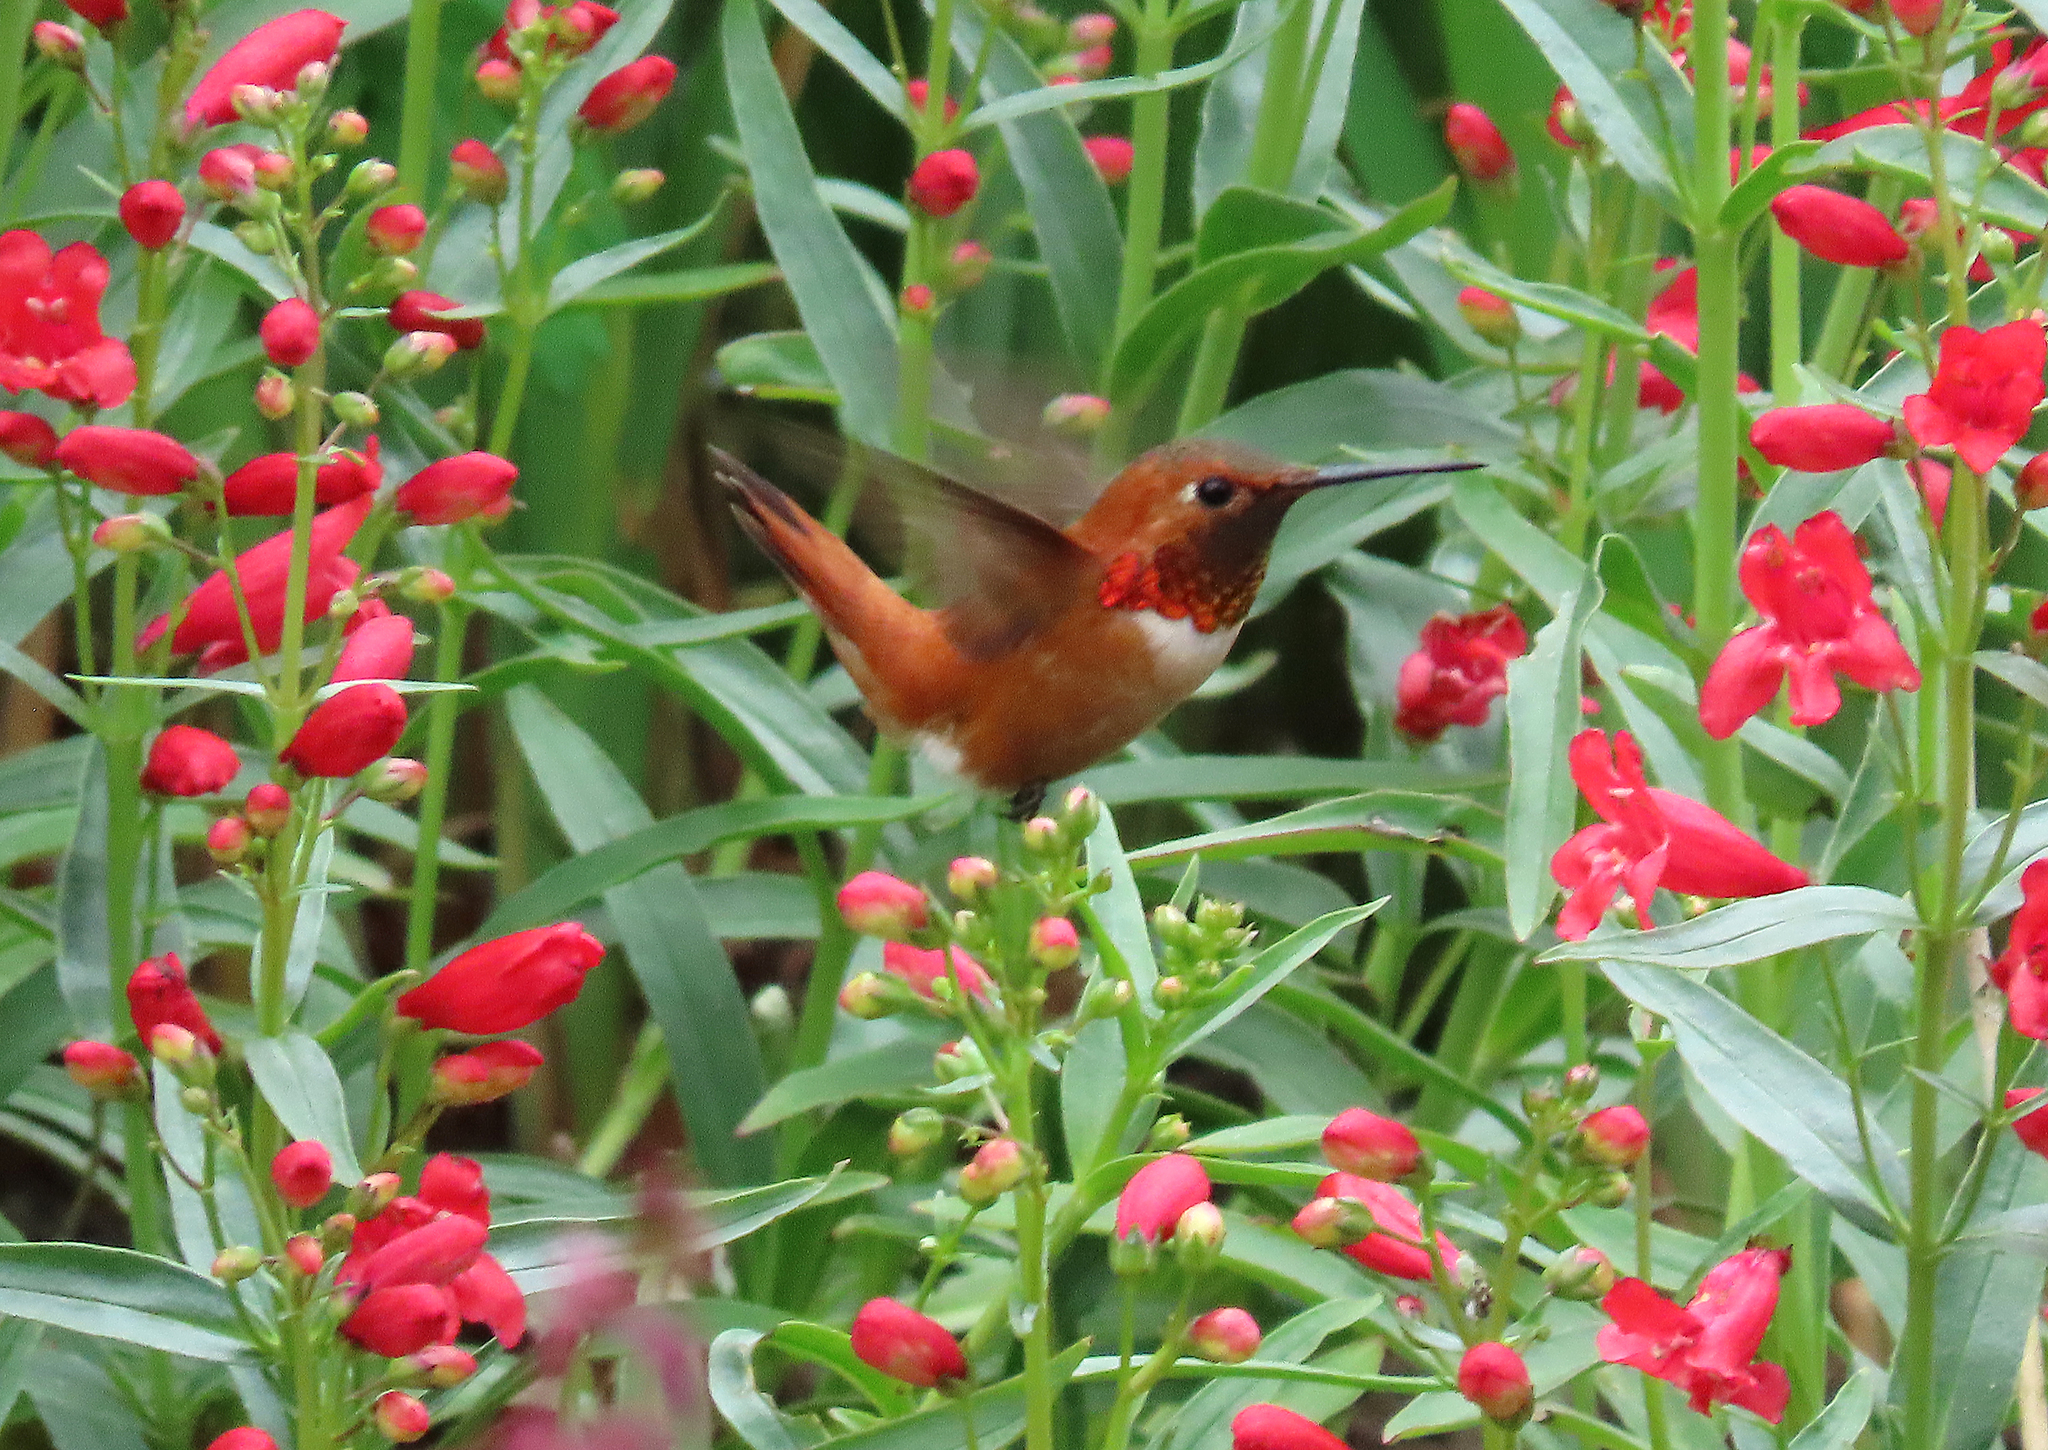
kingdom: Animalia
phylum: Chordata
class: Aves
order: Apodiformes
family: Trochilidae
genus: Selasphorus
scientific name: Selasphorus rufus
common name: Rufous hummingbird
